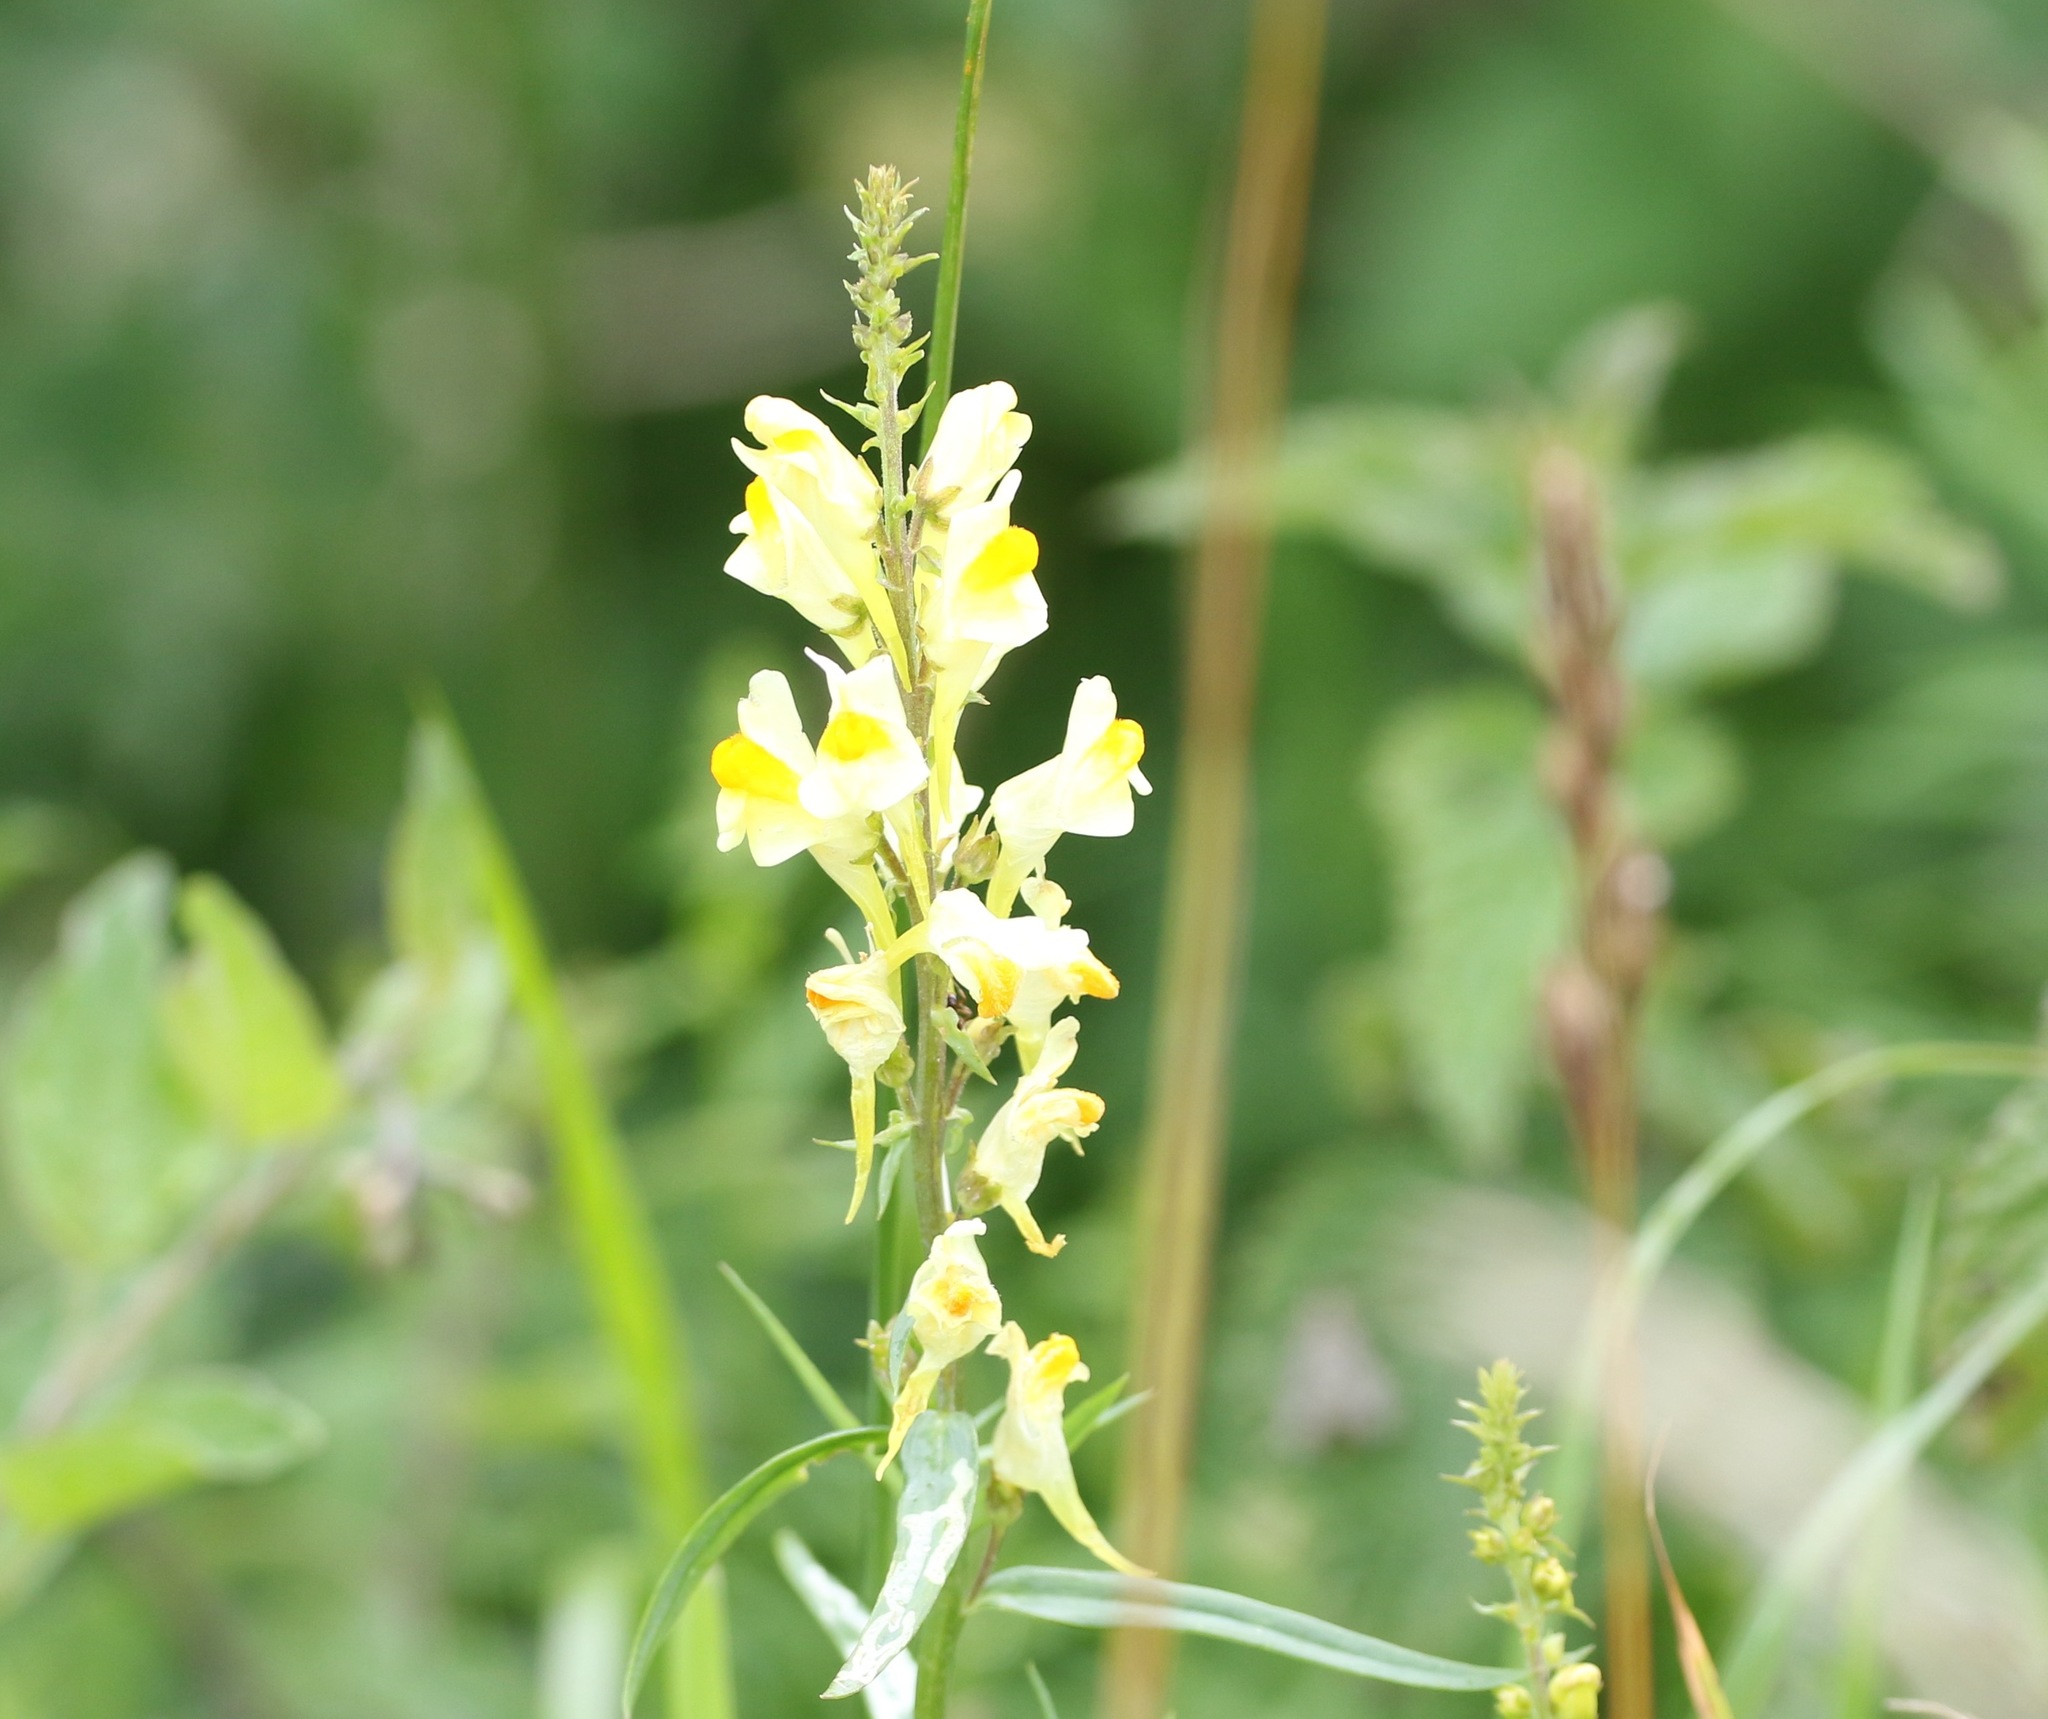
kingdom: Plantae
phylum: Tracheophyta
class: Magnoliopsida
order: Lamiales
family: Plantaginaceae
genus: Linaria
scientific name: Linaria vulgaris
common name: Butter and eggs
